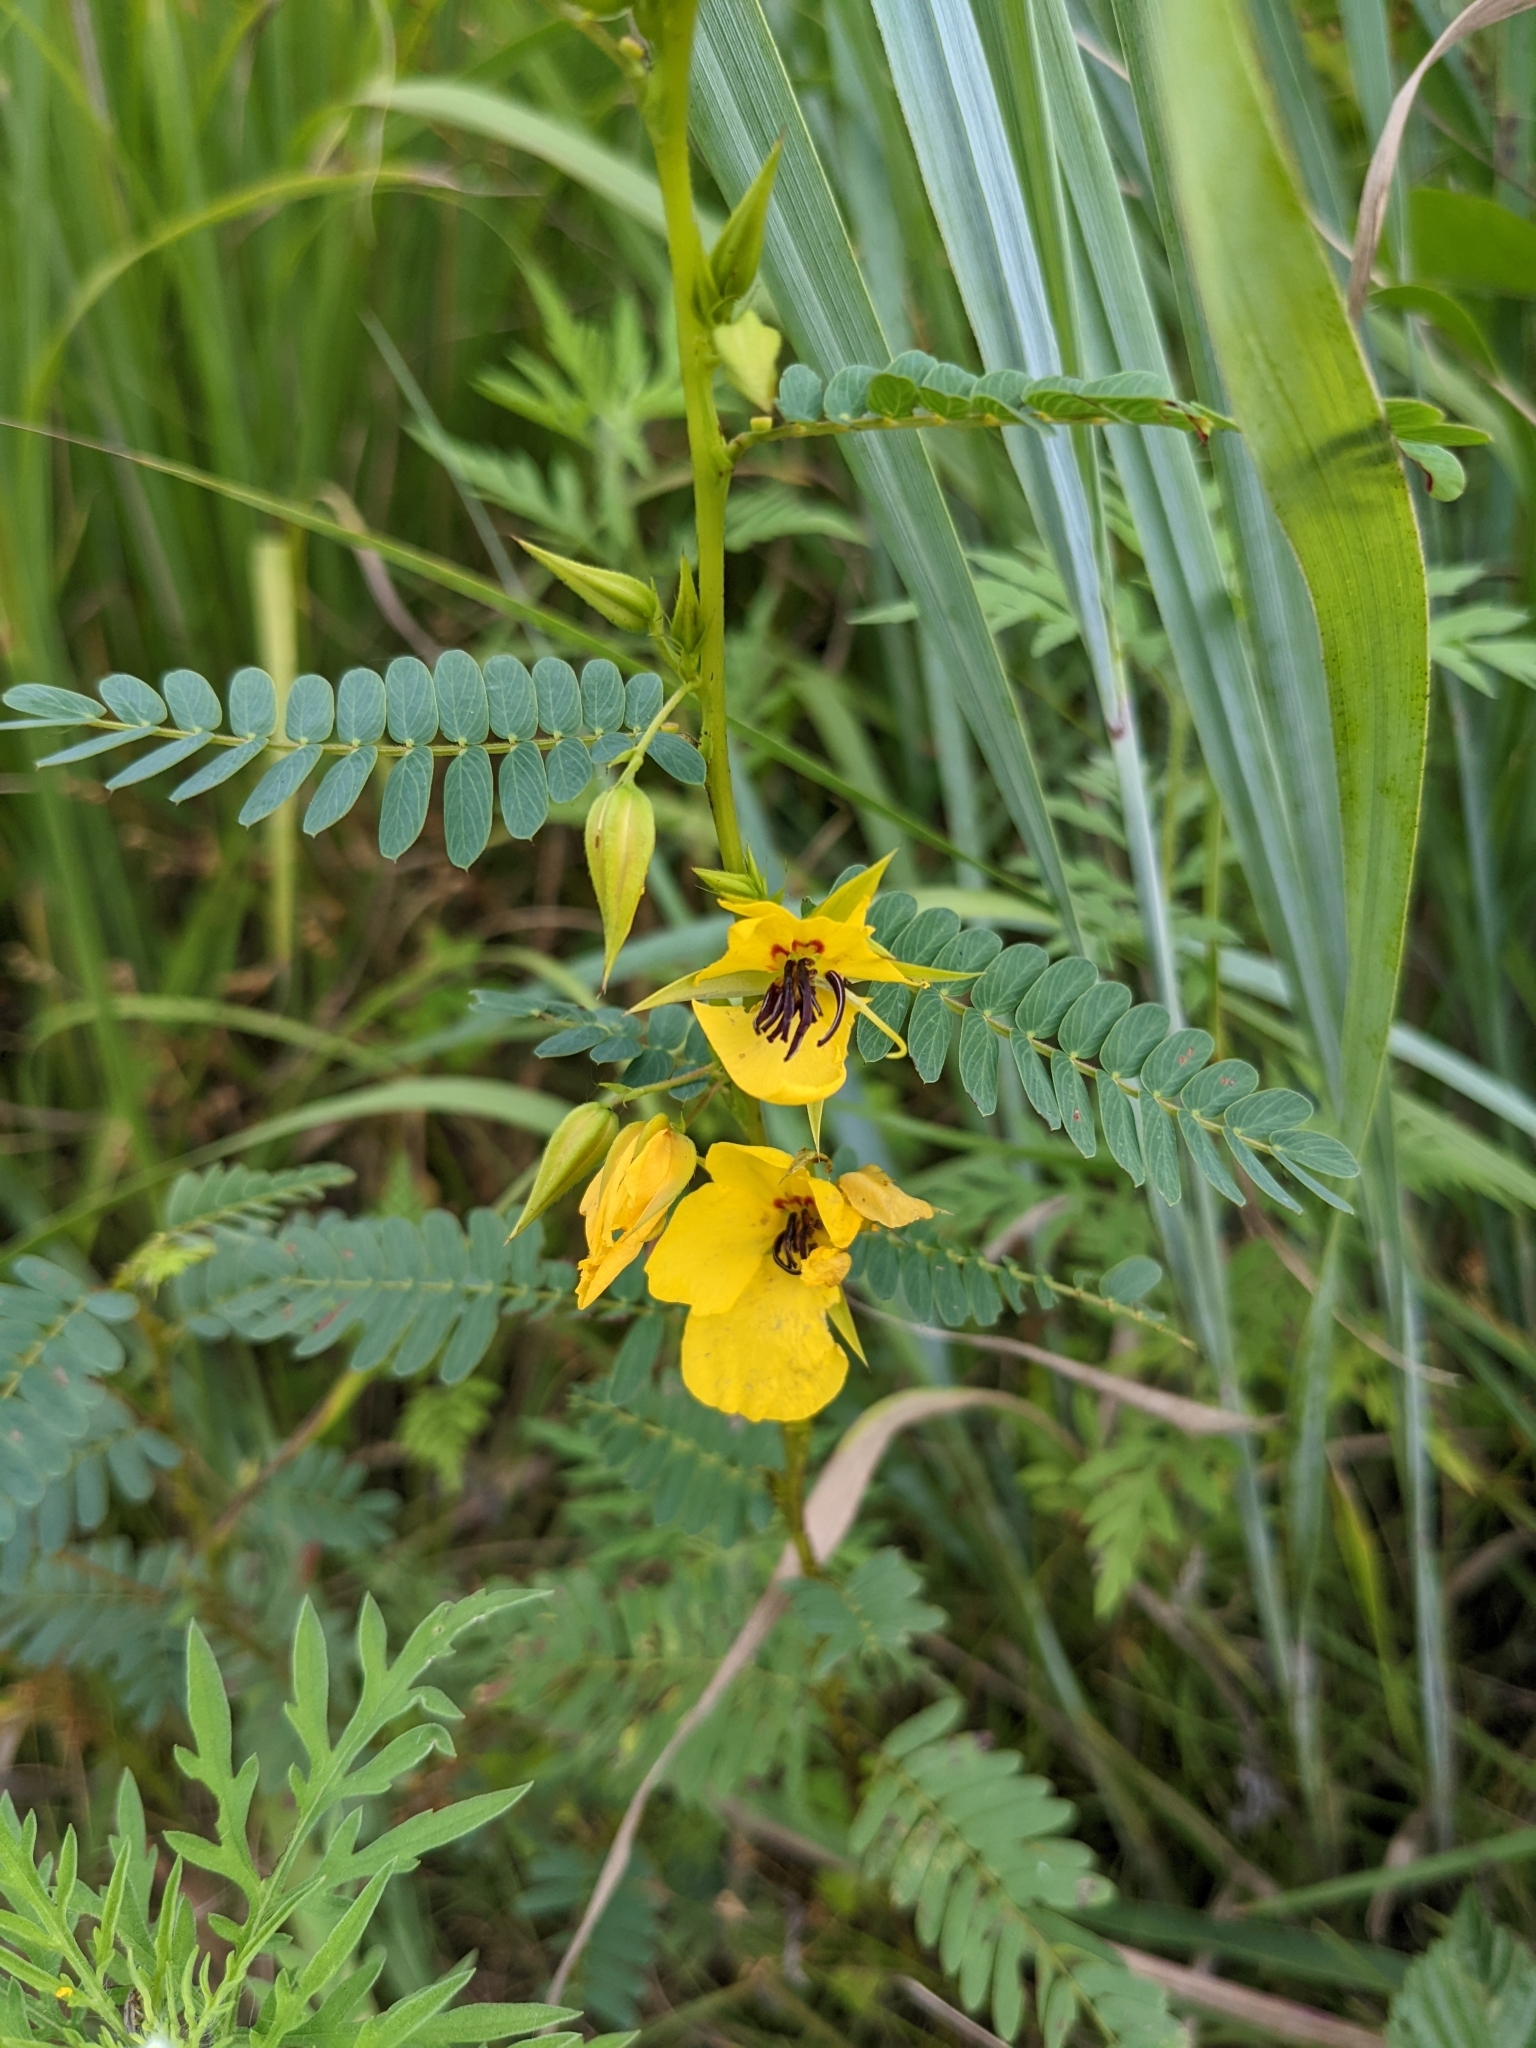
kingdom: Plantae
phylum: Tracheophyta
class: Magnoliopsida
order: Fabales
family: Fabaceae
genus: Chamaecrista
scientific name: Chamaecrista fasciculata
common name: Golden cassia
